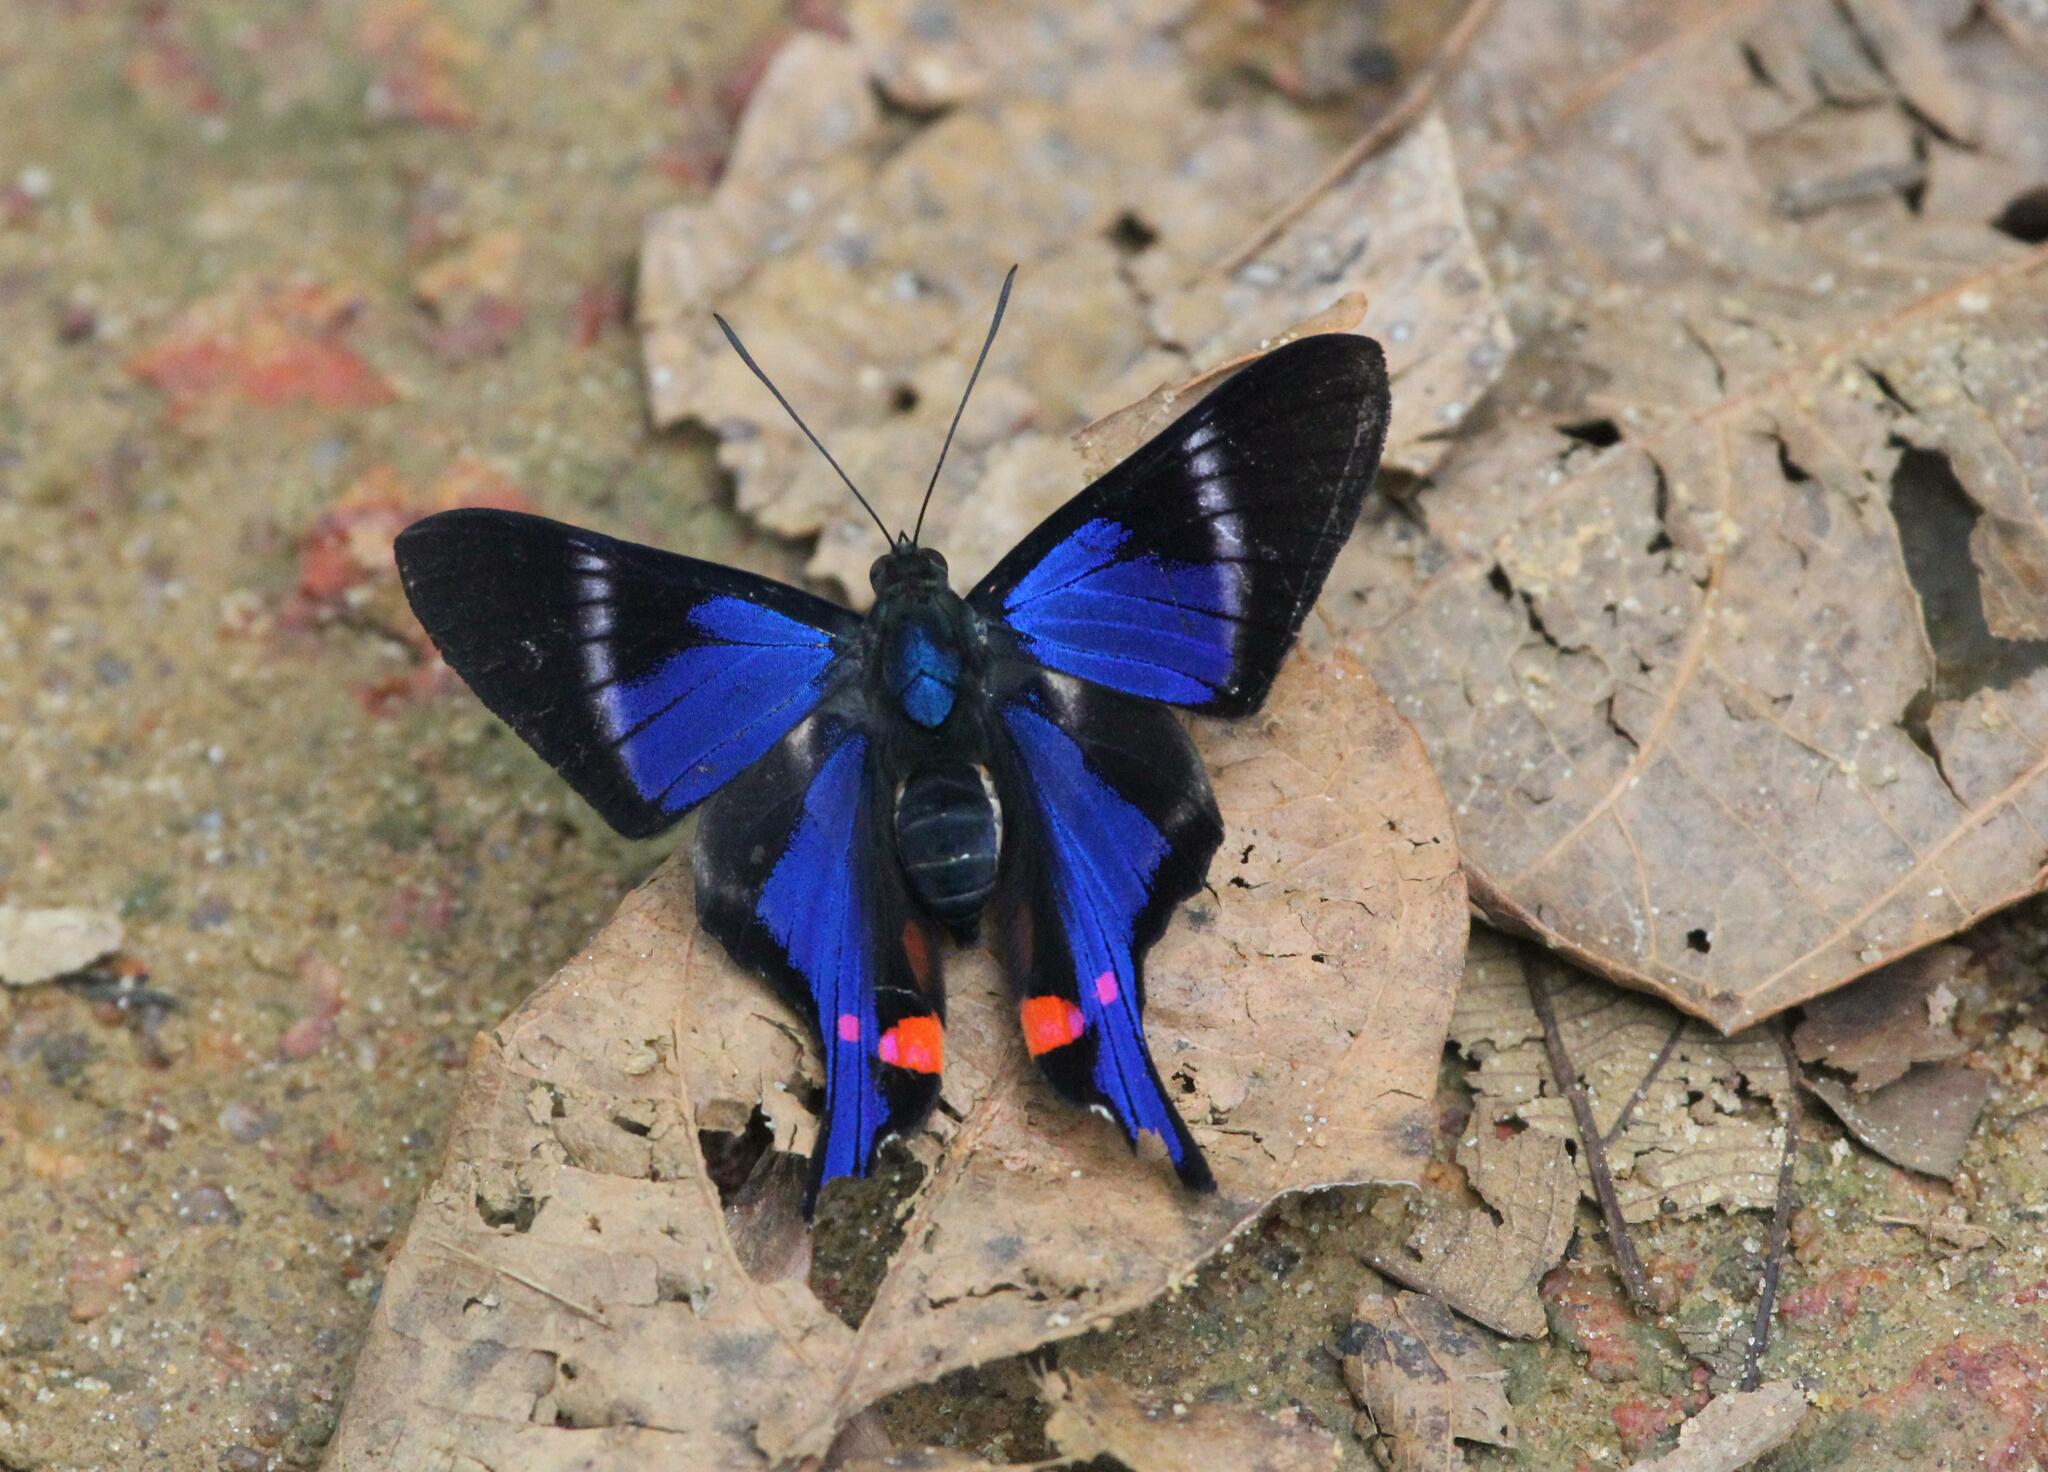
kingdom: Animalia
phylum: Arthropoda
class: Insecta
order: Lepidoptera
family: Riodinidae
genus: Rhetus
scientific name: Rhetus periander
